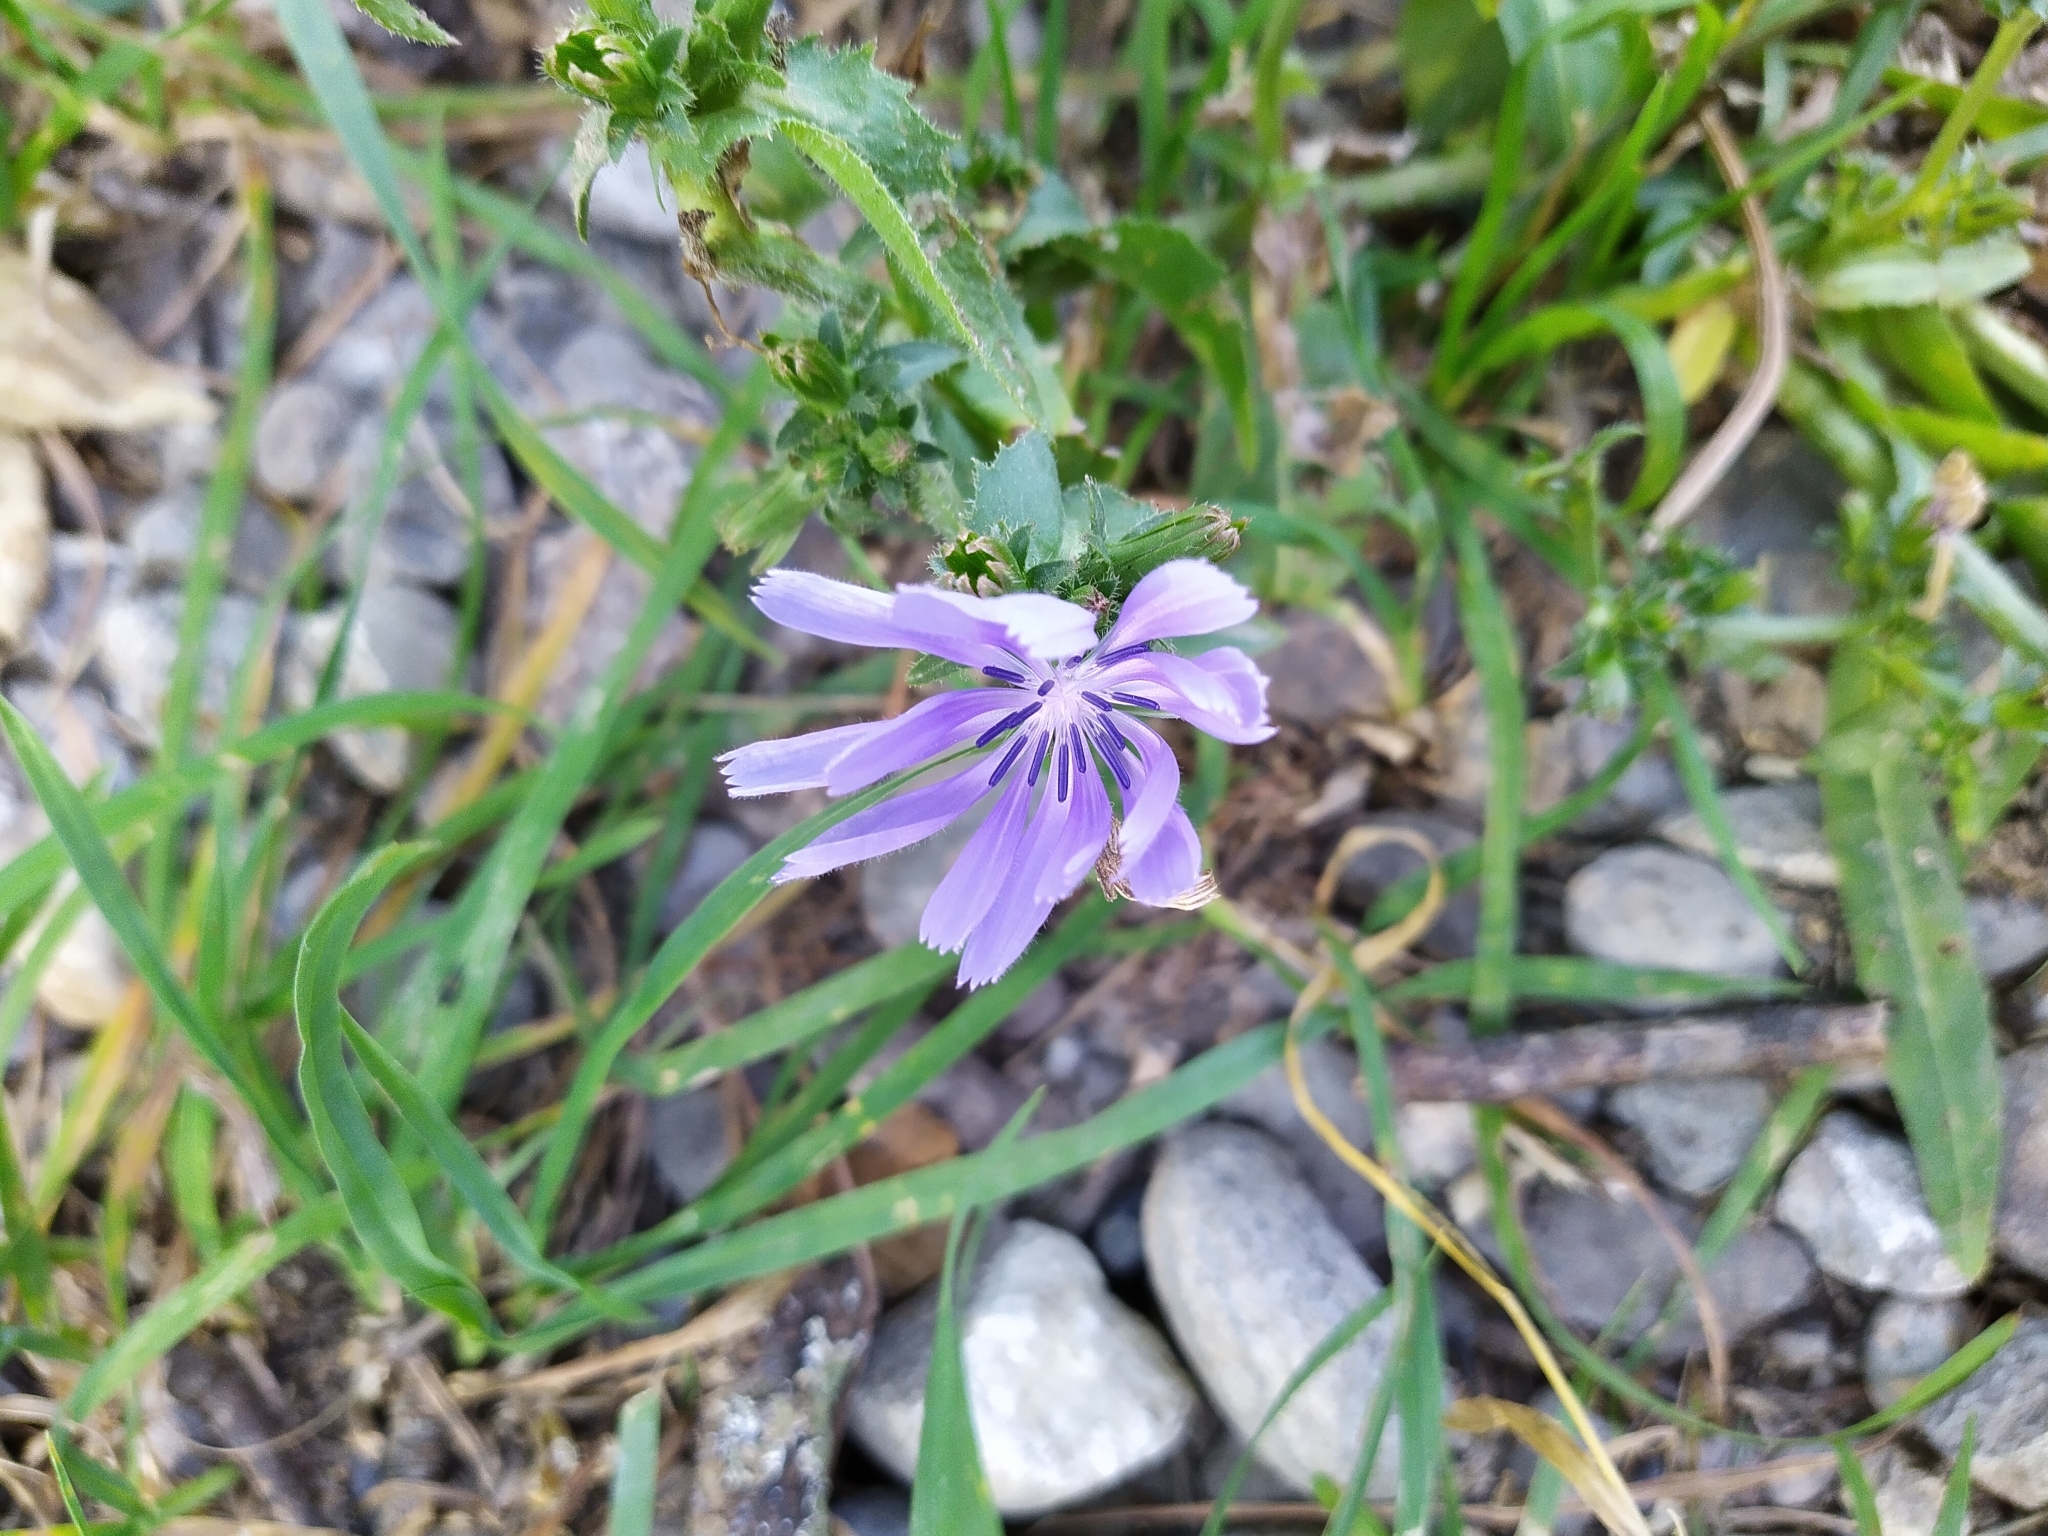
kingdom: Plantae
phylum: Tracheophyta
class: Magnoliopsida
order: Asterales
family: Asteraceae
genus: Cichorium
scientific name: Cichorium intybus
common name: Chicory
